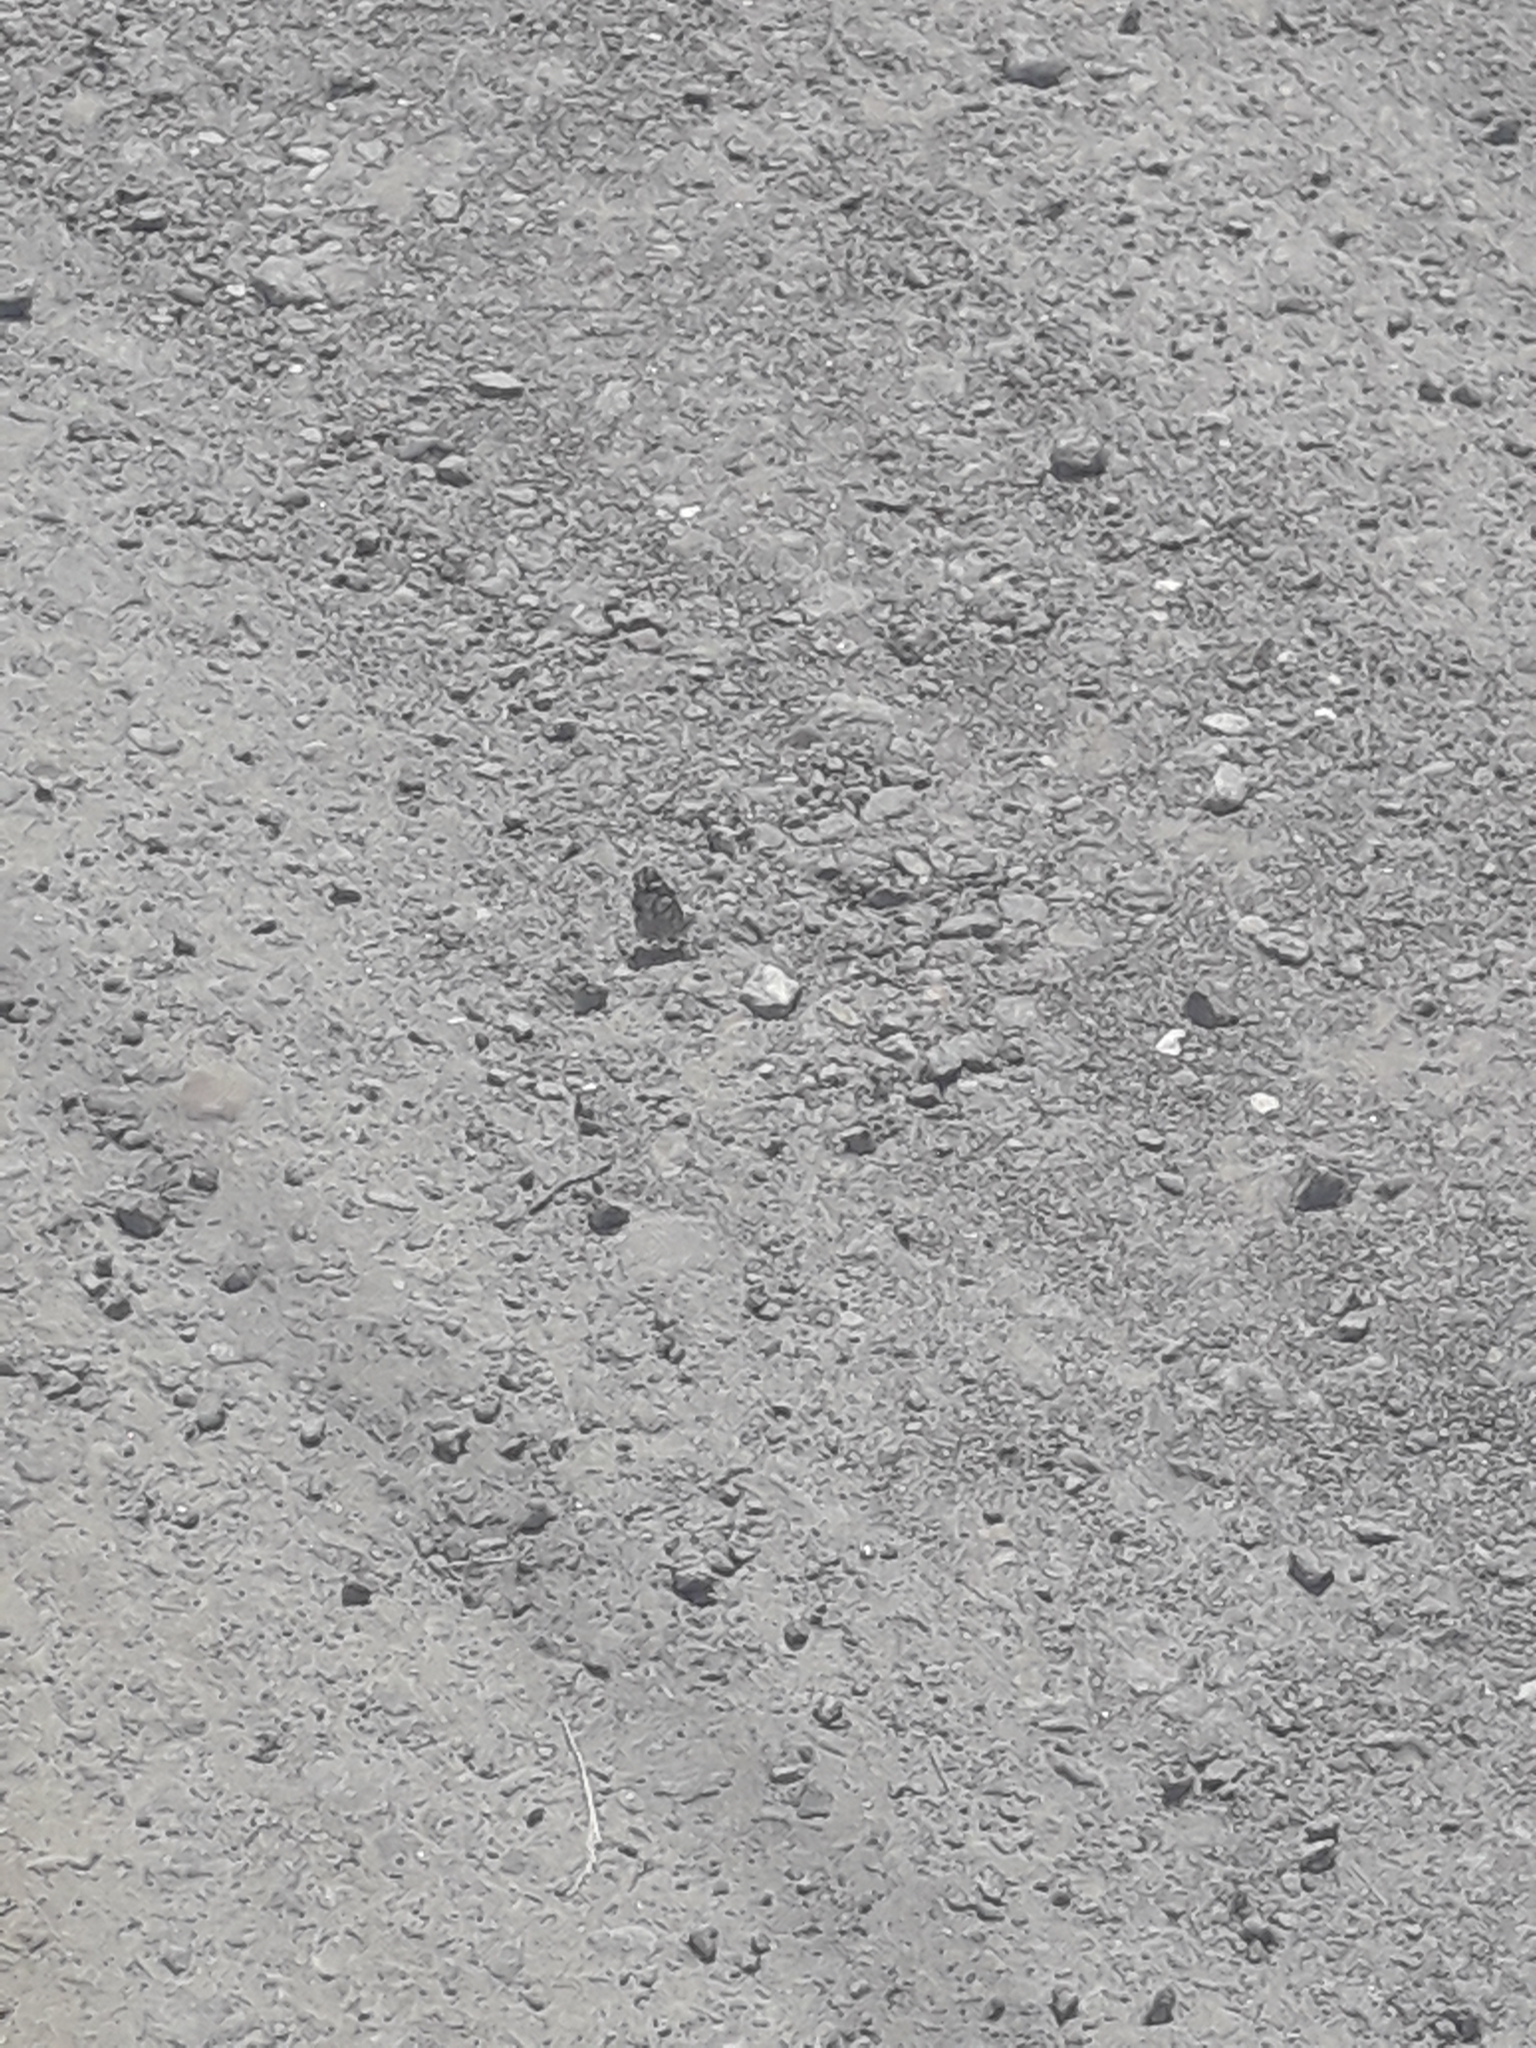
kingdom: Animalia
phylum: Arthropoda
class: Insecta
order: Lepidoptera
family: Nymphalidae
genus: Vanessa
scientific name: Vanessa cardui
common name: Painted lady
